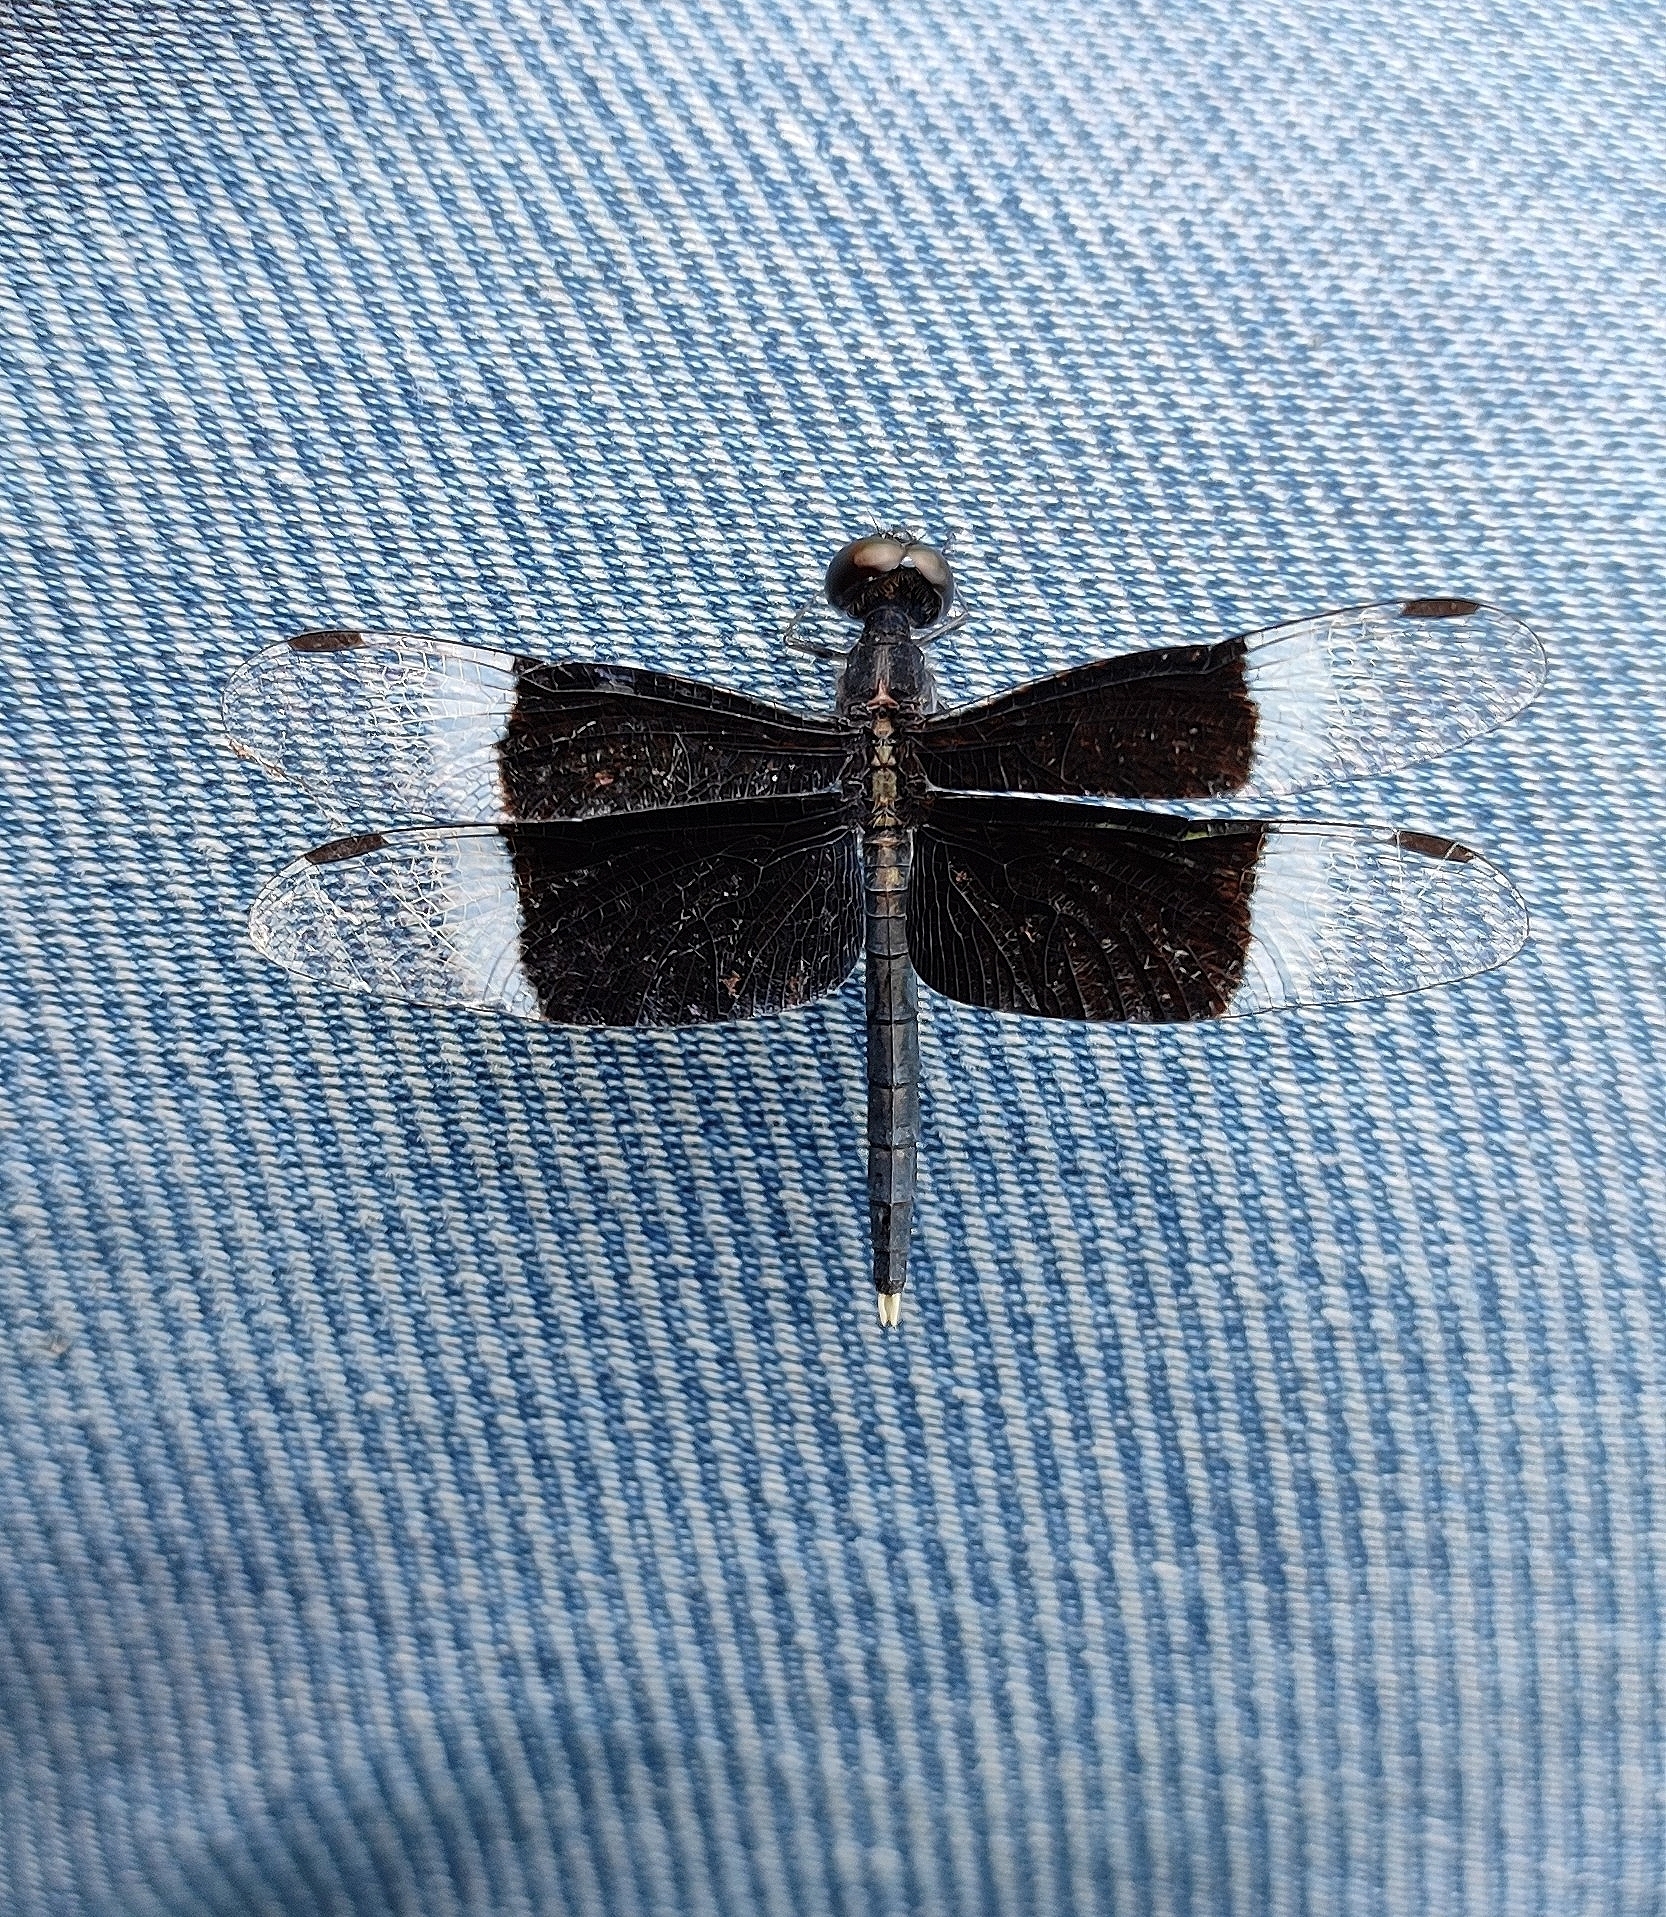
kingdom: Animalia
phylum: Arthropoda
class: Insecta
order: Odonata
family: Libellulidae
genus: Neurothemis
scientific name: Neurothemis tullia
